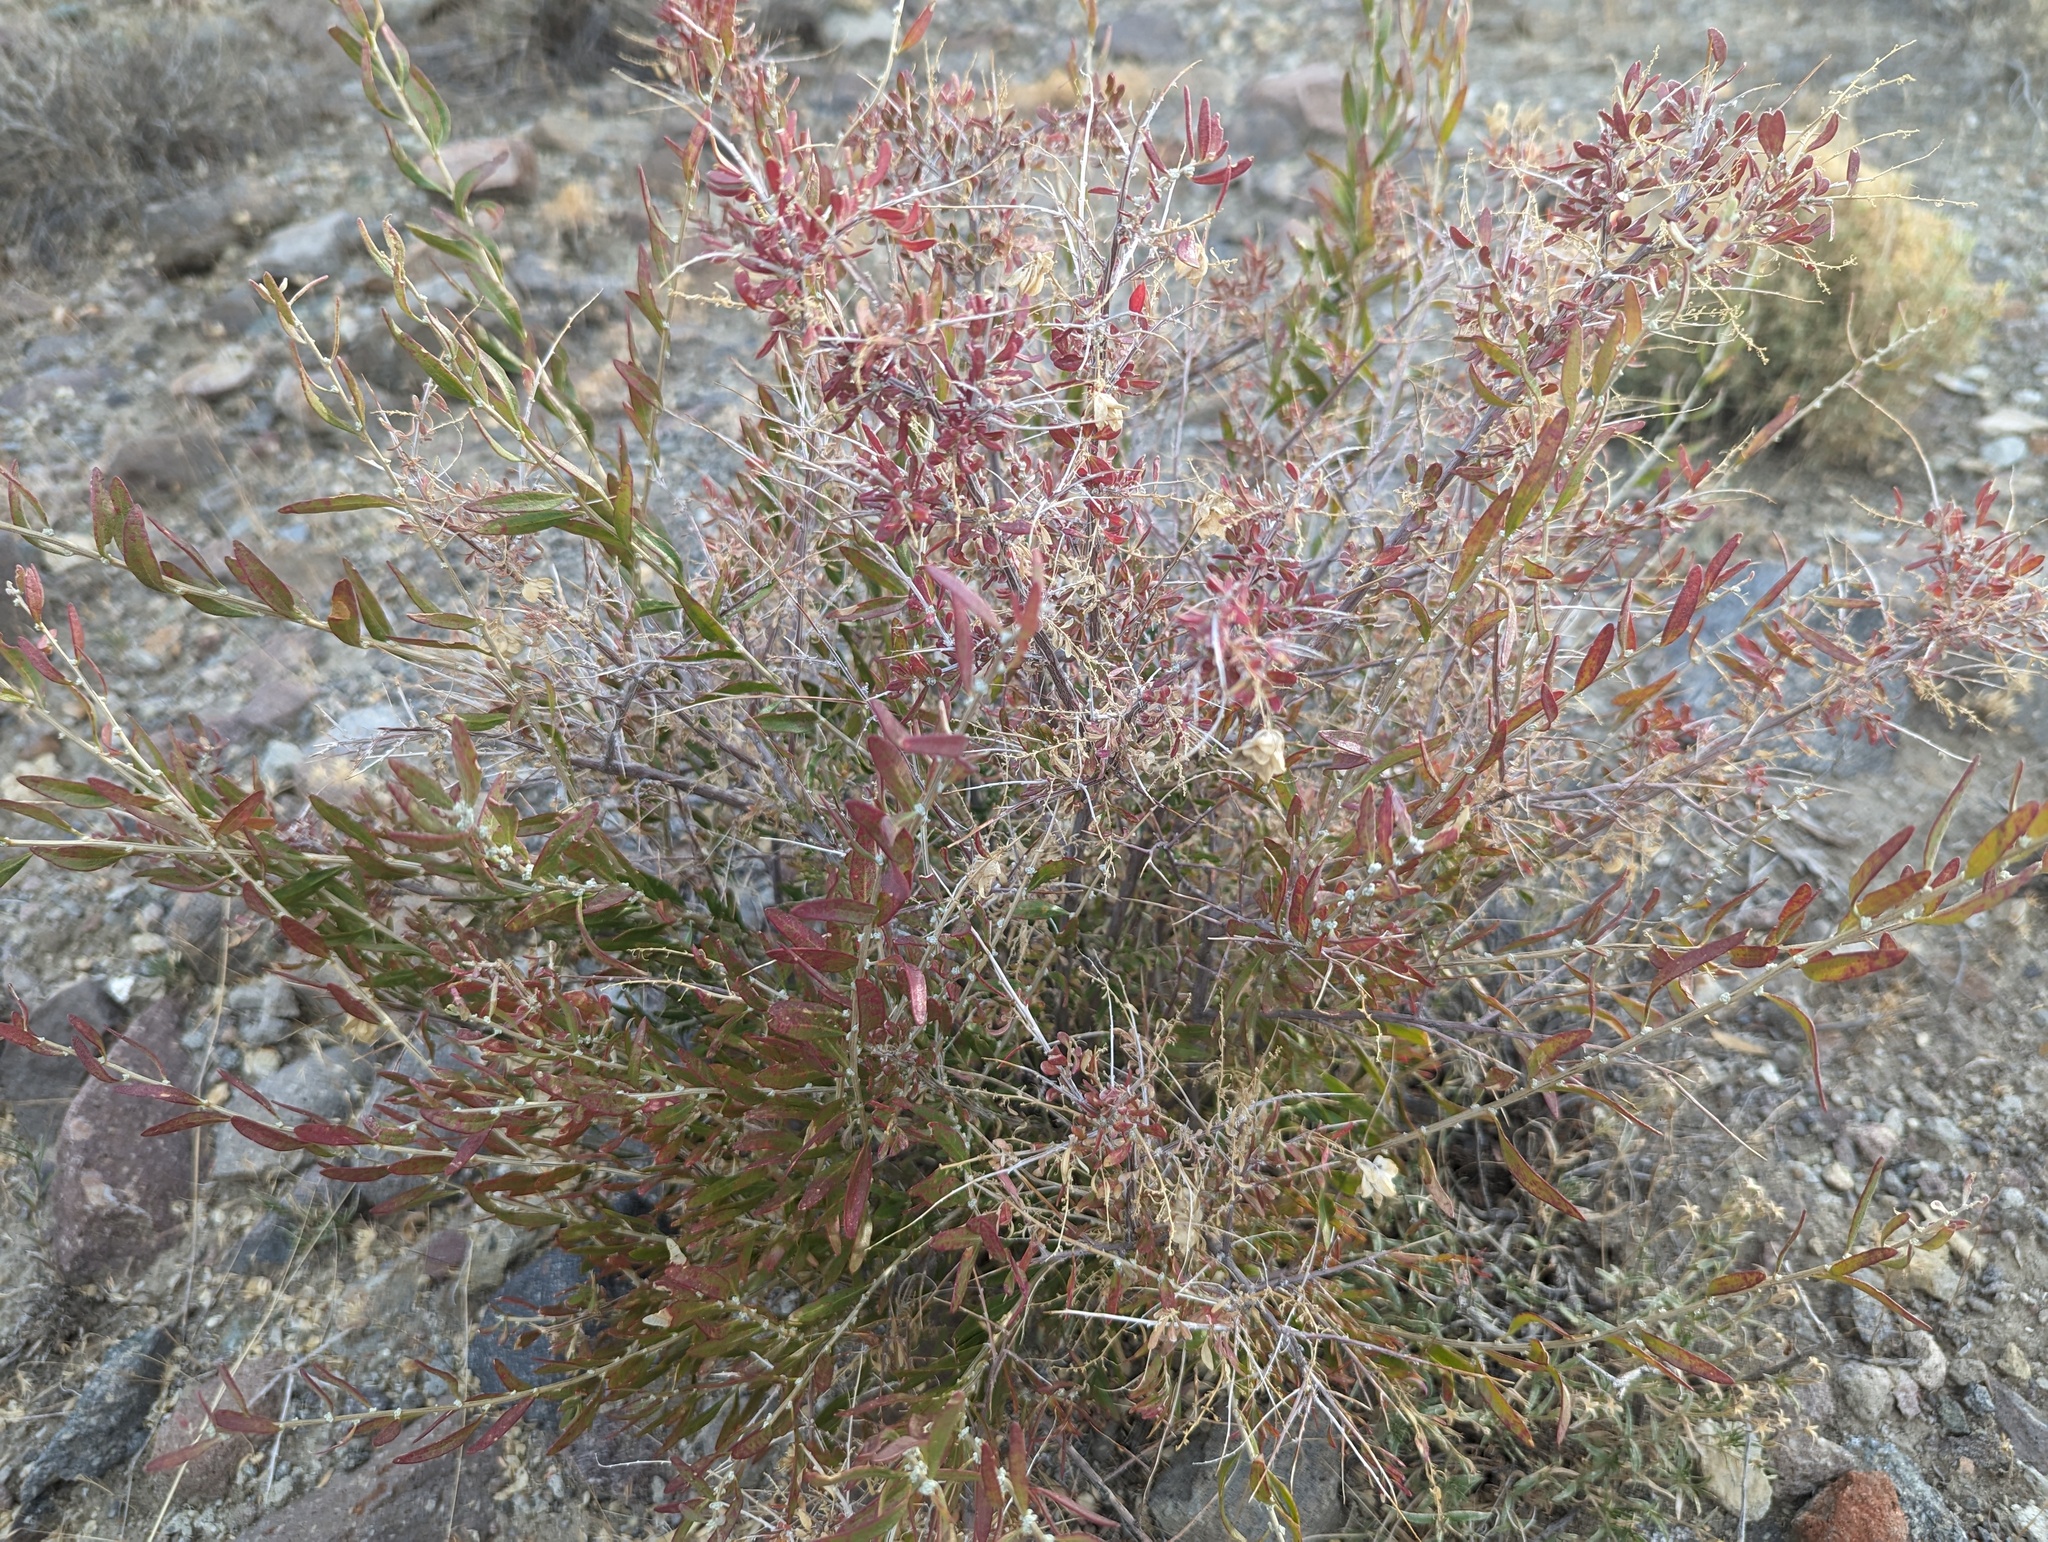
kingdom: Plantae
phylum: Tracheophyta
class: Magnoliopsida
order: Caryophyllales
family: Amaranthaceae
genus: Grayia
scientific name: Grayia spinosa
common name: Spiny hopsage
